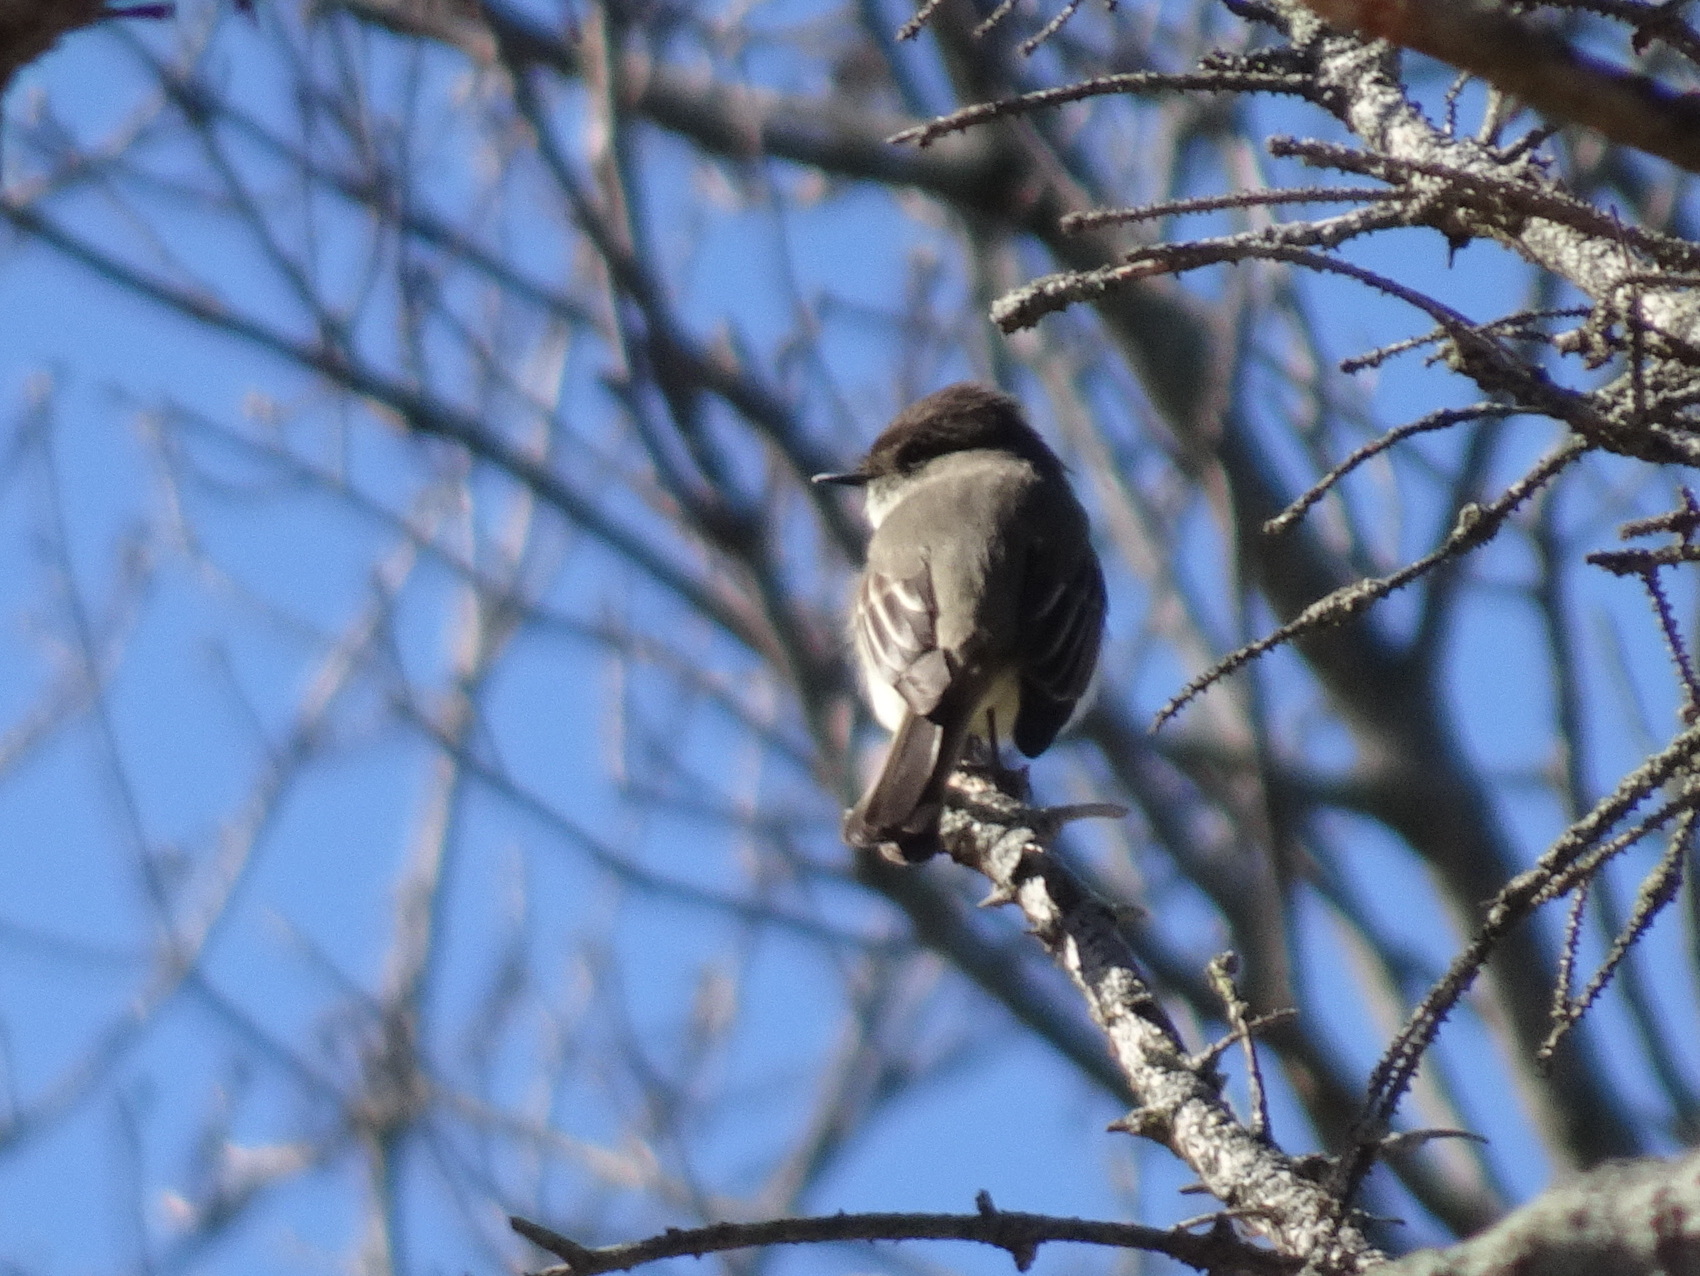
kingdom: Animalia
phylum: Chordata
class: Aves
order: Passeriformes
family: Tyrannidae
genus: Sayornis
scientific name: Sayornis phoebe
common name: Eastern phoebe
